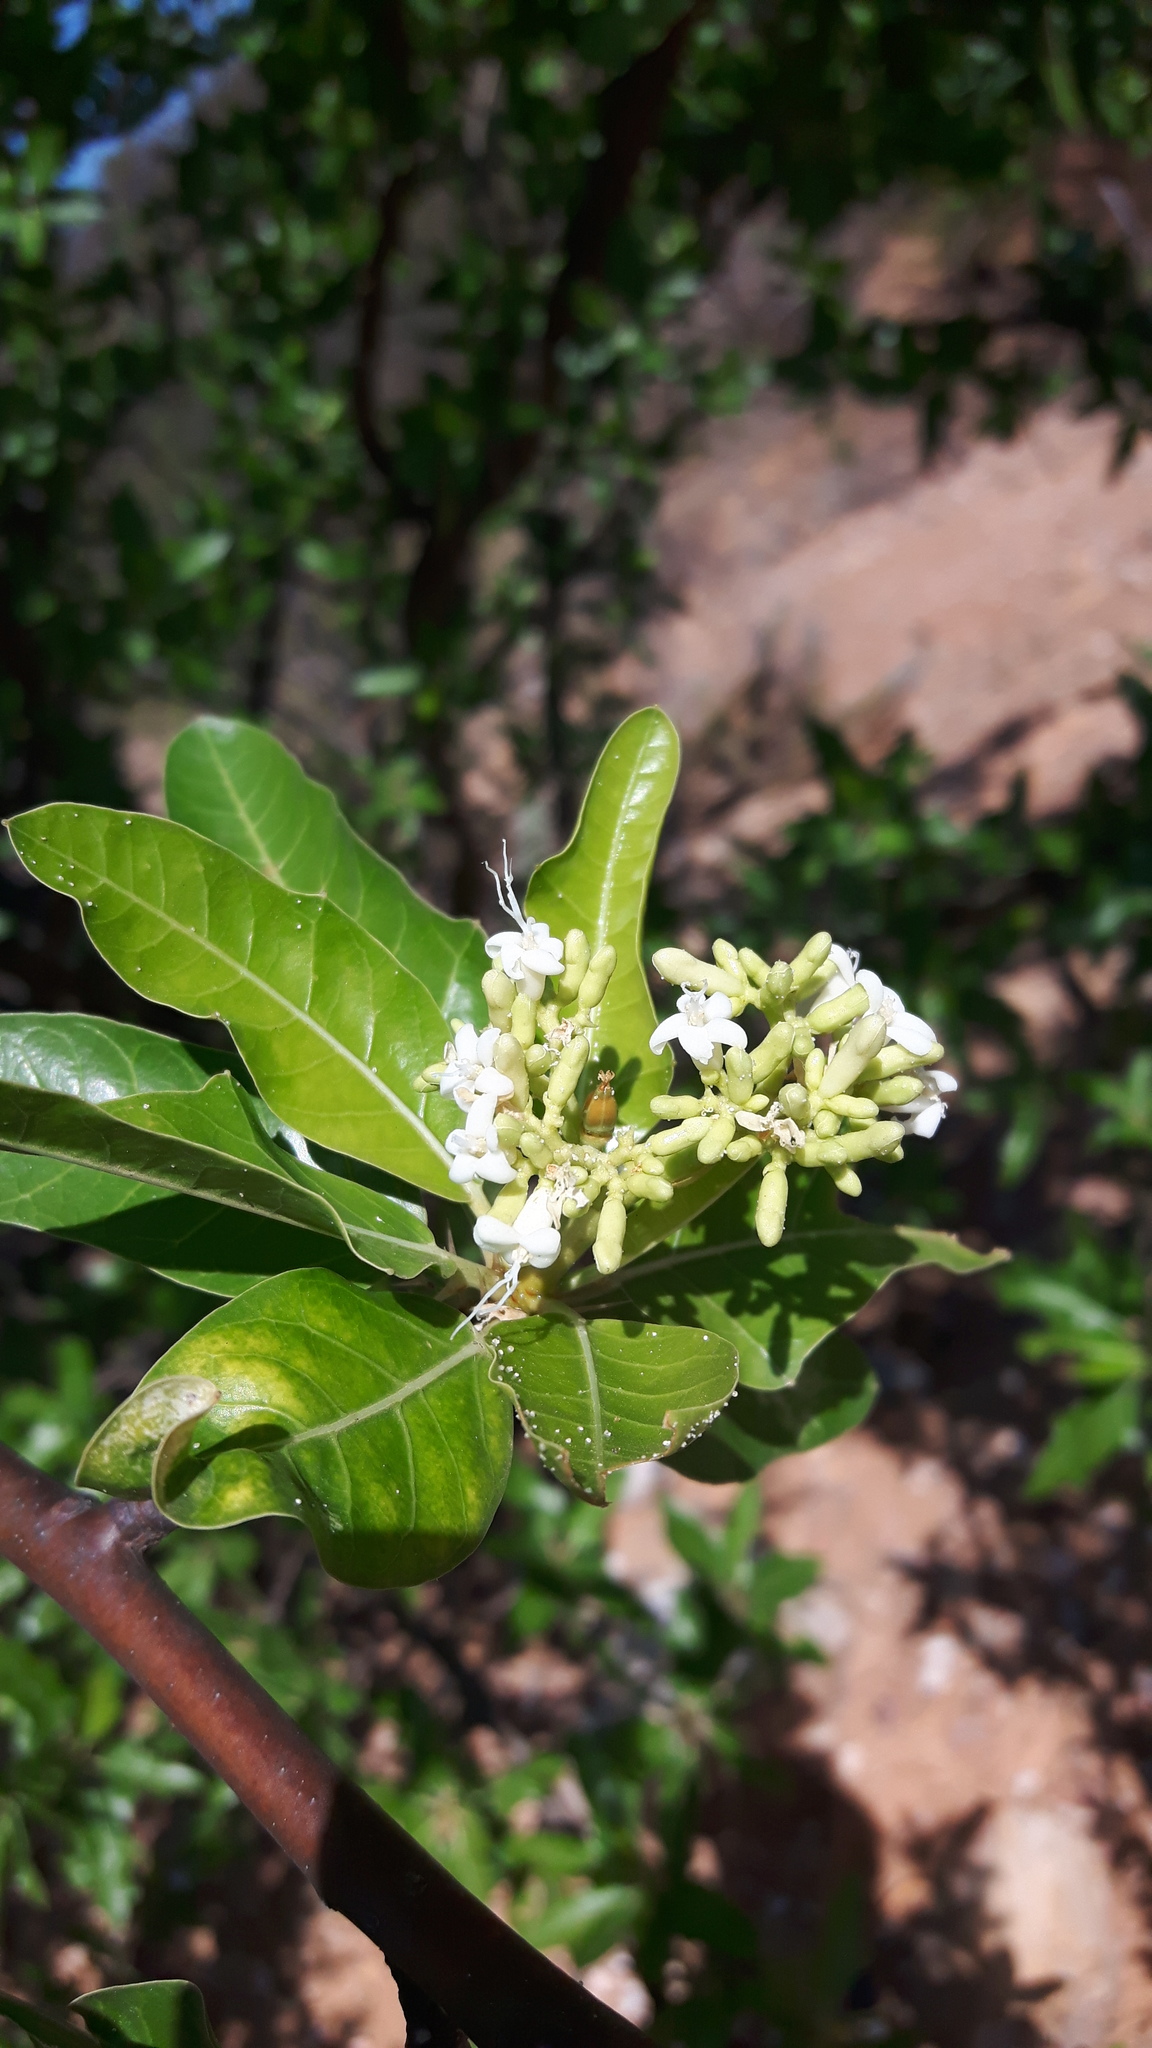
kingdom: Plantae
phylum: Tracheophyta
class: Magnoliopsida
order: Malpighiales
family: Euphorbiaceae
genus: Cnidoscolus
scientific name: Cnidoscolus quercifolius
